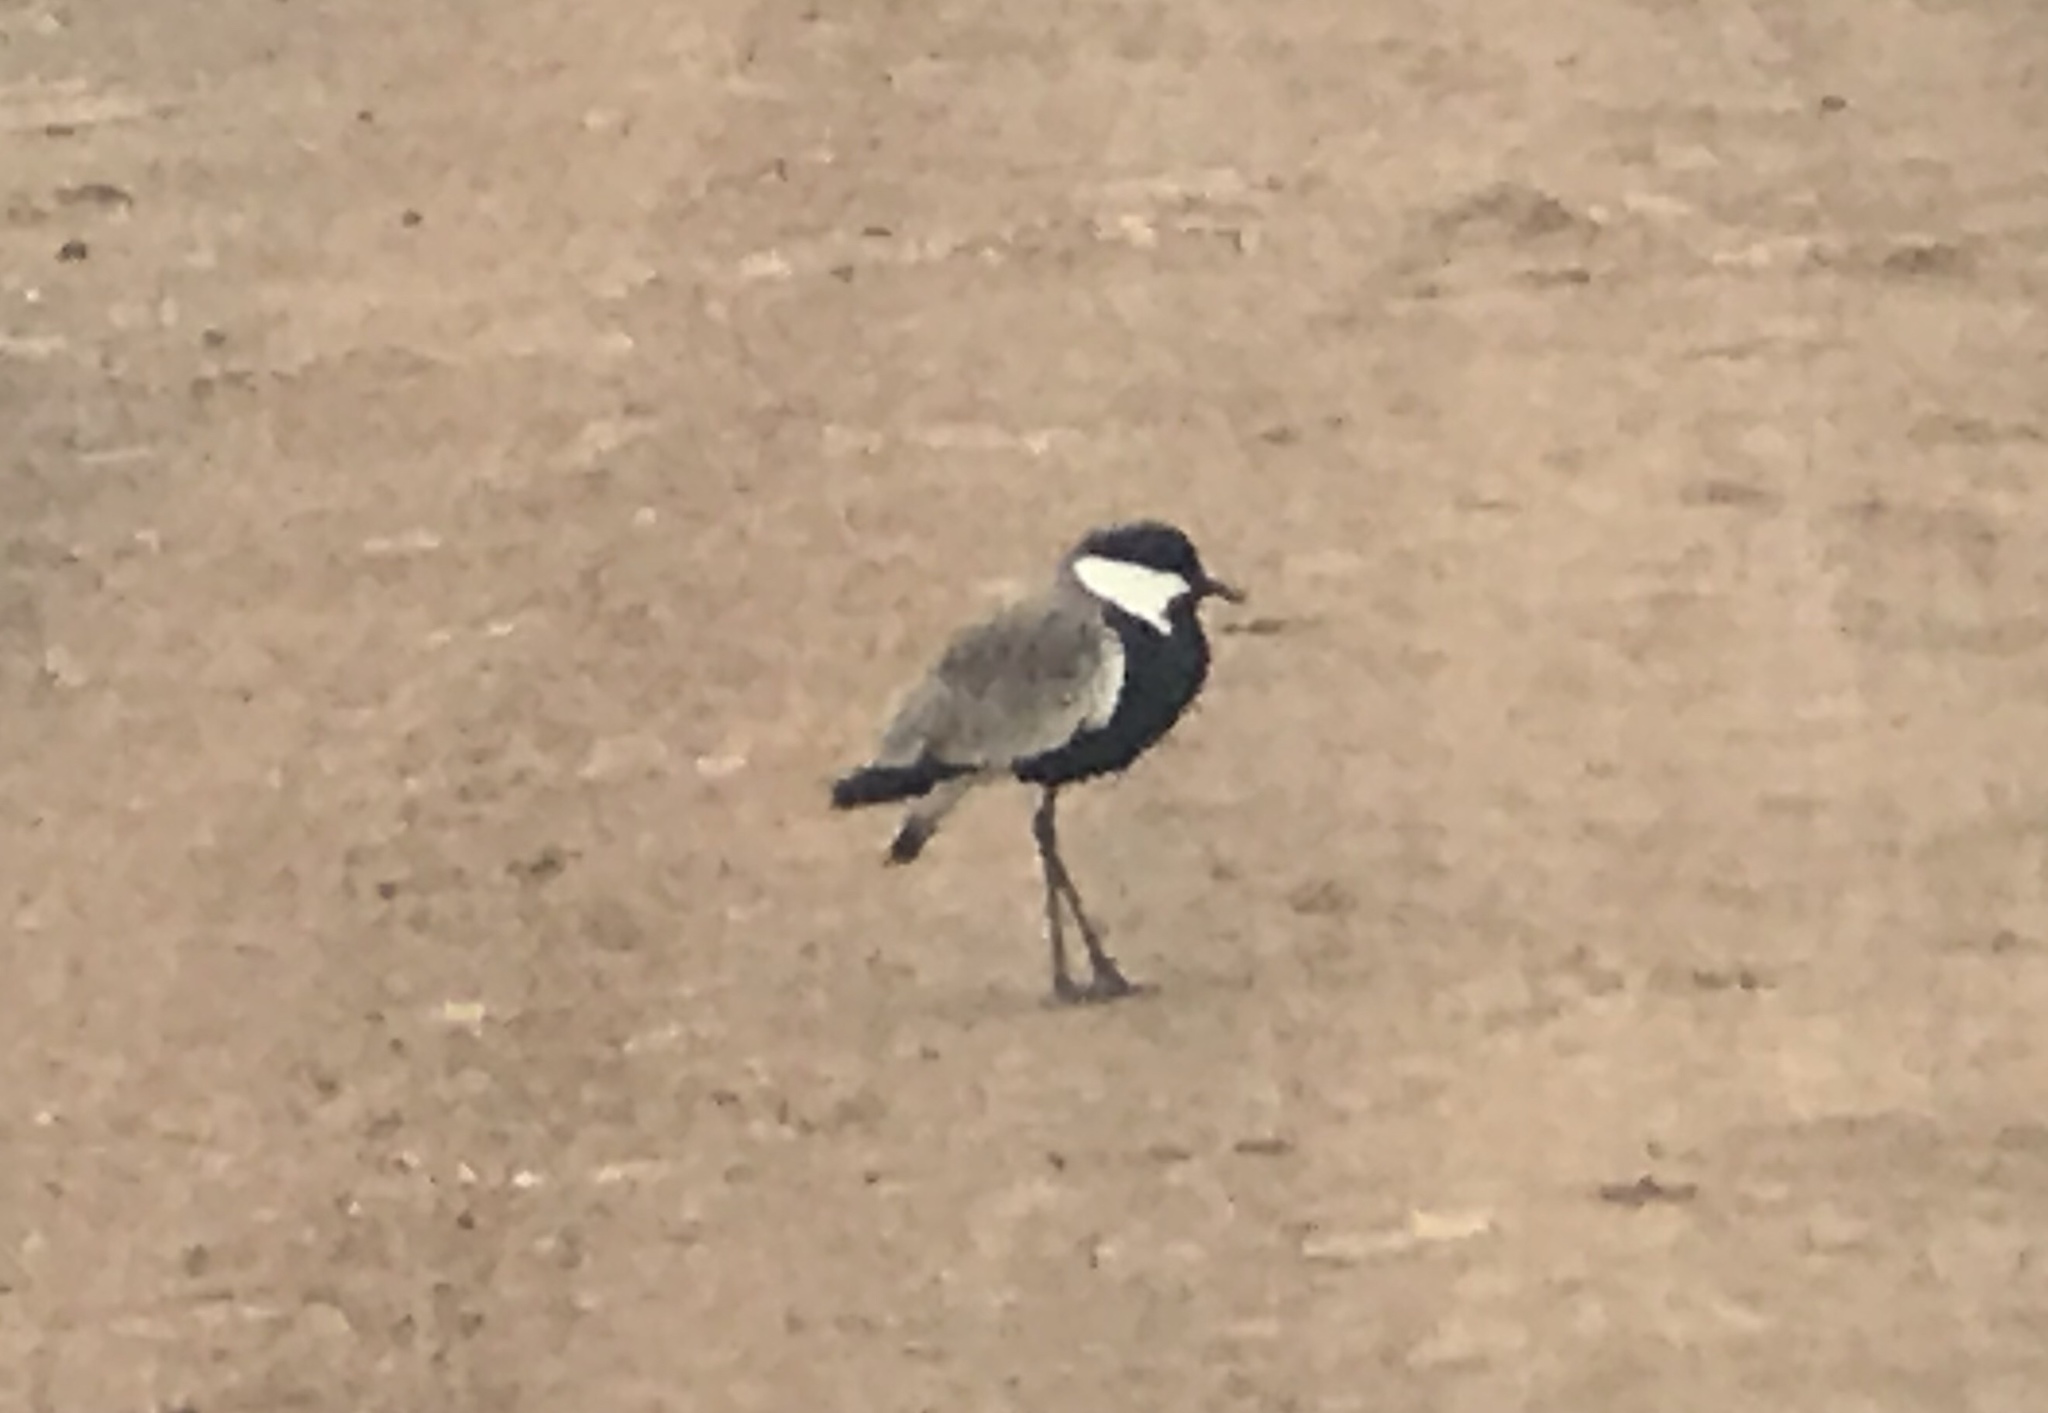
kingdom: Animalia
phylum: Chordata
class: Aves
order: Charadriiformes
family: Charadriidae
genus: Vanellus
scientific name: Vanellus spinosus
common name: Spur-winged lapwing
